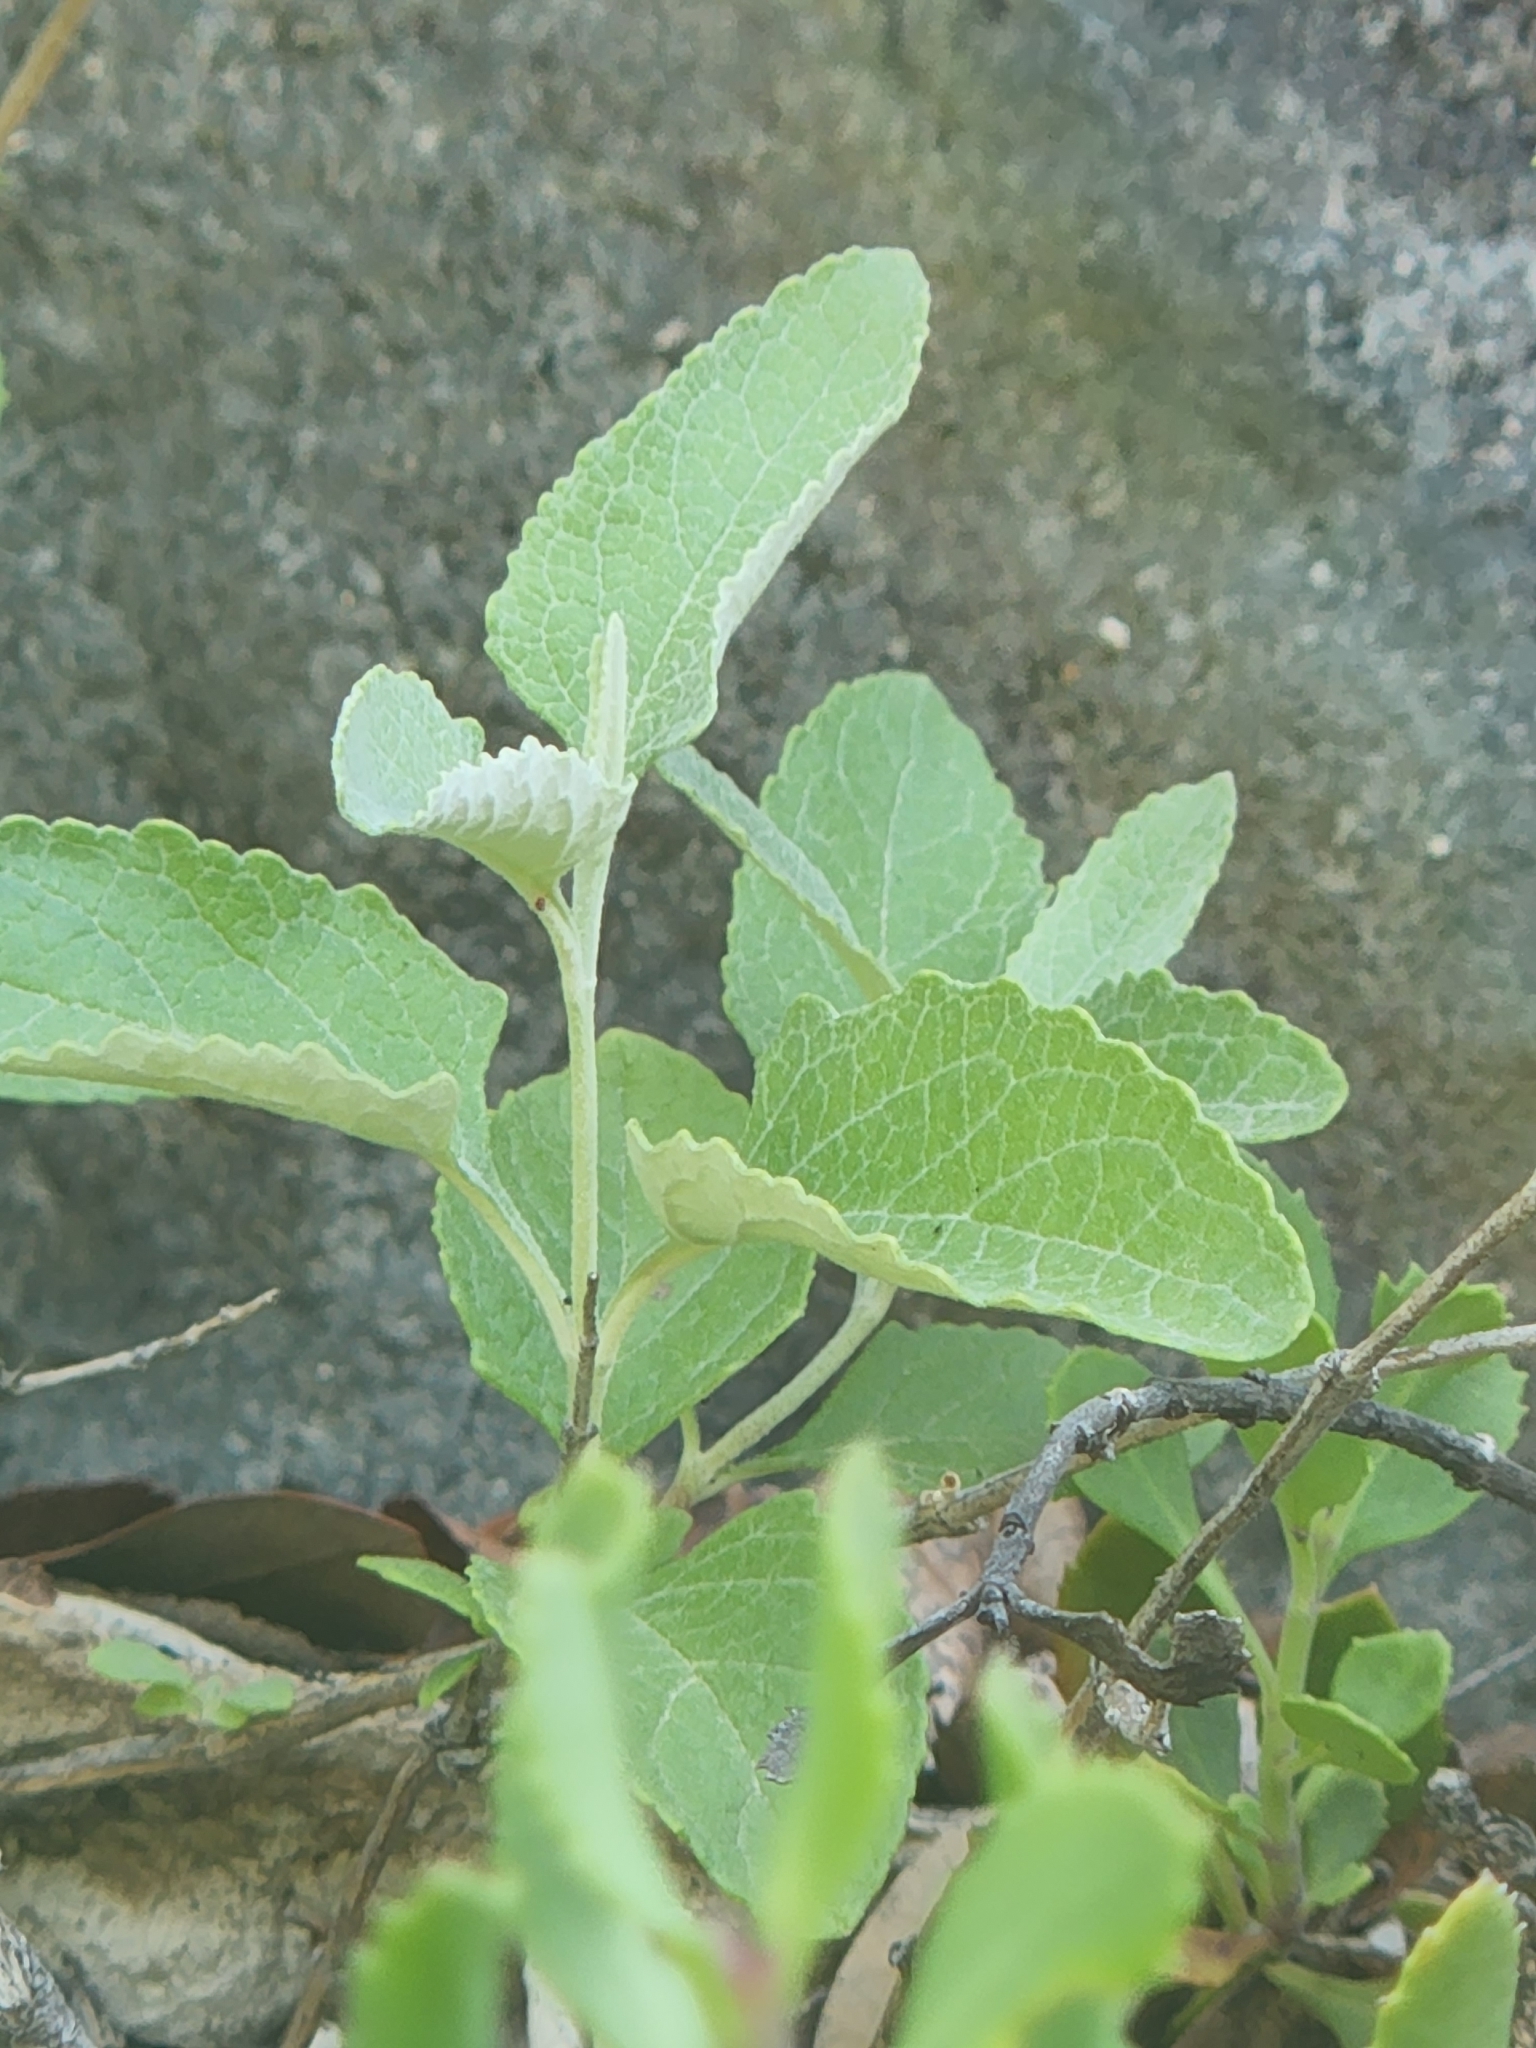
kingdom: Plantae
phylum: Tracheophyta
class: Magnoliopsida
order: Lamiales
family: Scrophulariaceae
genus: Buddleja
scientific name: Buddleja racemosa
